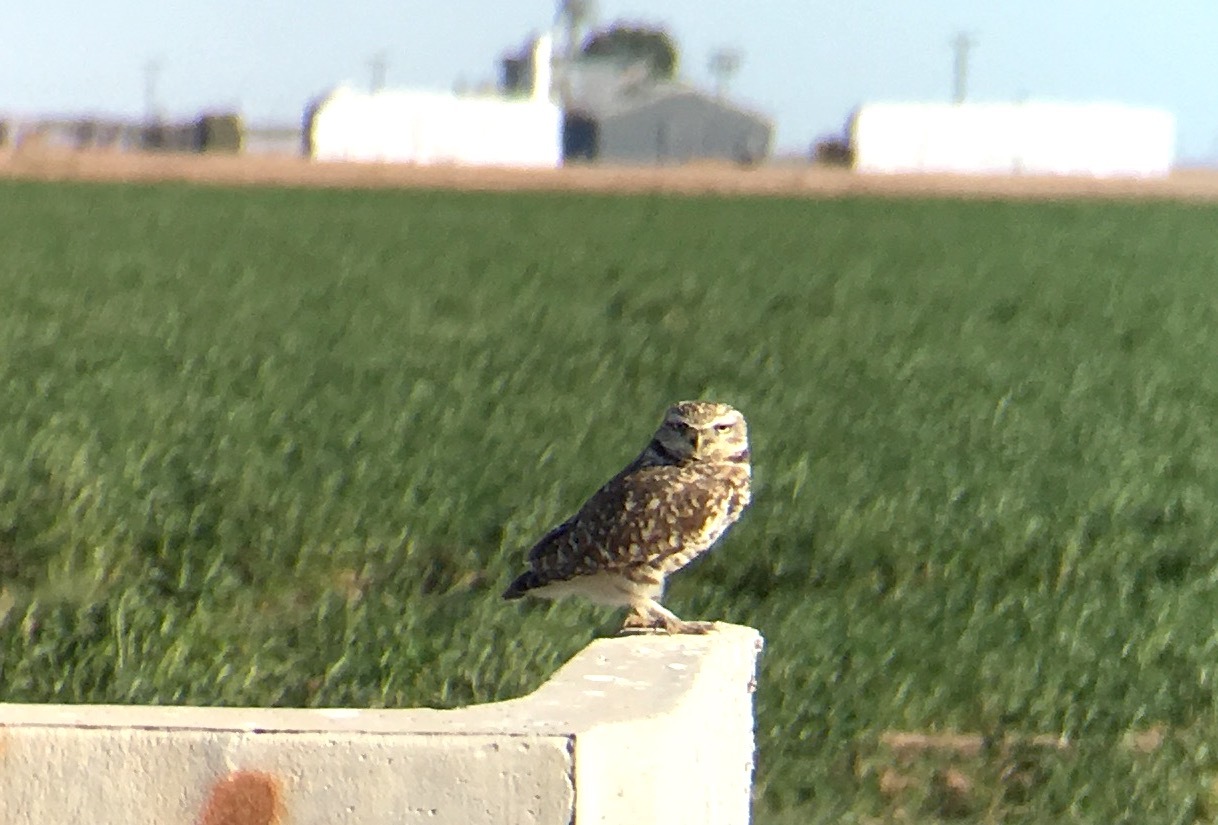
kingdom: Animalia
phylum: Chordata
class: Aves
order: Strigiformes
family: Strigidae
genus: Athene
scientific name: Athene cunicularia
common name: Burrowing owl
